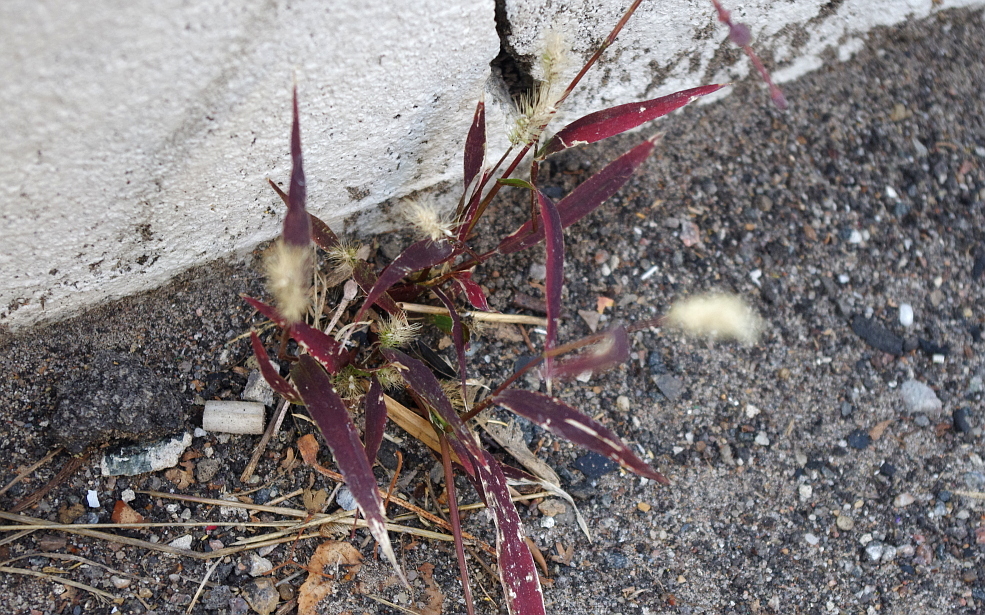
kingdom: Plantae
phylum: Tracheophyta
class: Liliopsida
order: Poales
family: Poaceae
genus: Setaria
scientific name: Setaria viridis
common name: Green bristlegrass
